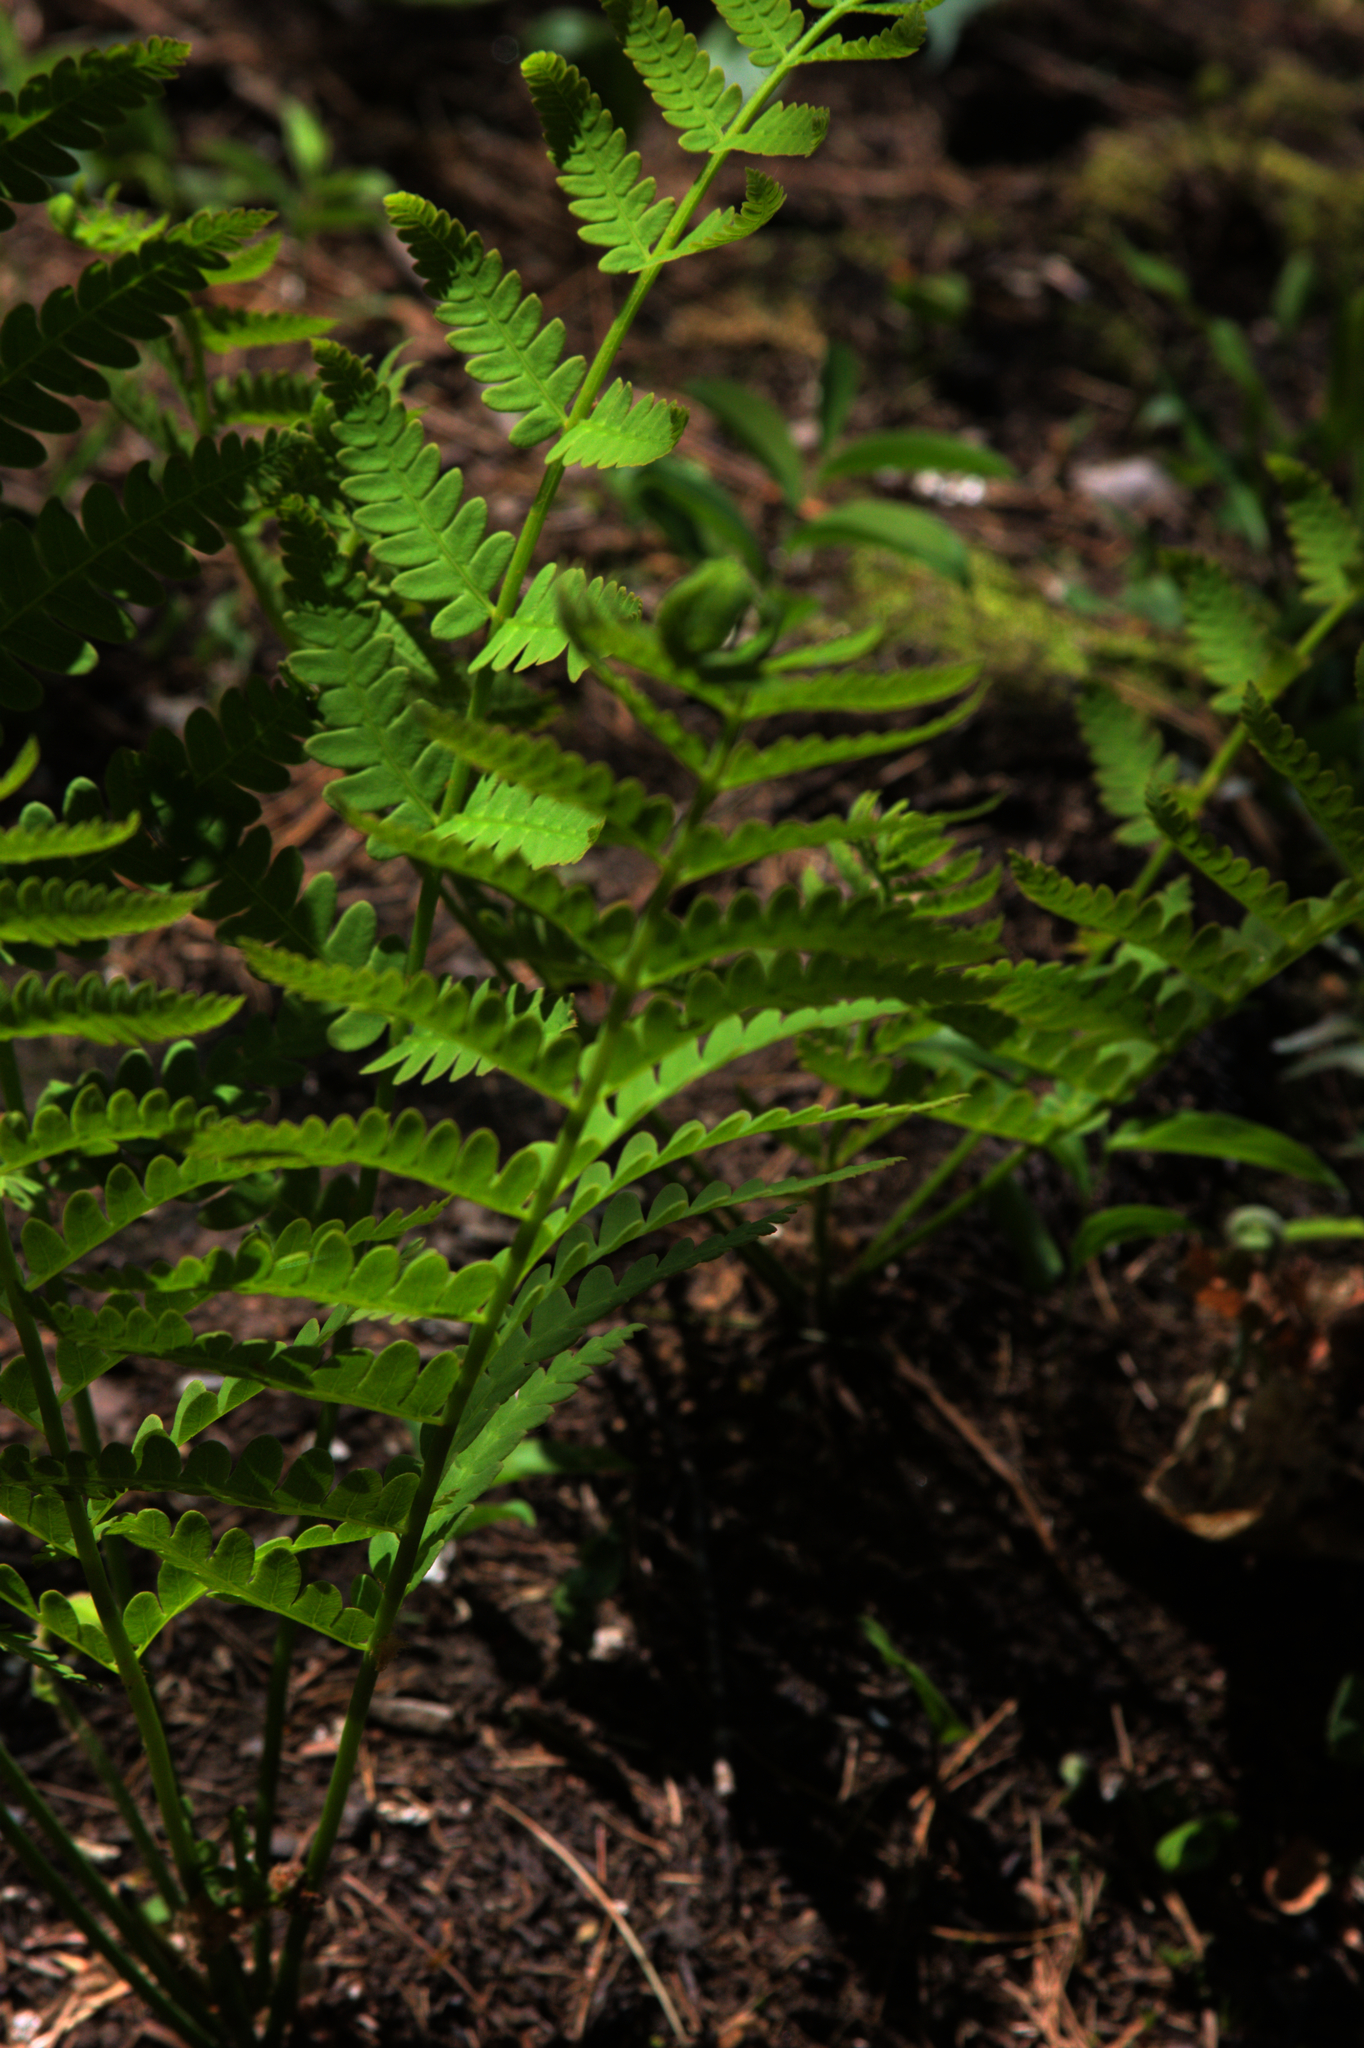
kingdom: Plantae
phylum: Tracheophyta
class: Polypodiopsida
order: Osmundales
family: Osmundaceae
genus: Claytosmunda
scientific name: Claytosmunda claytoniana
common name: Clayton's fern
